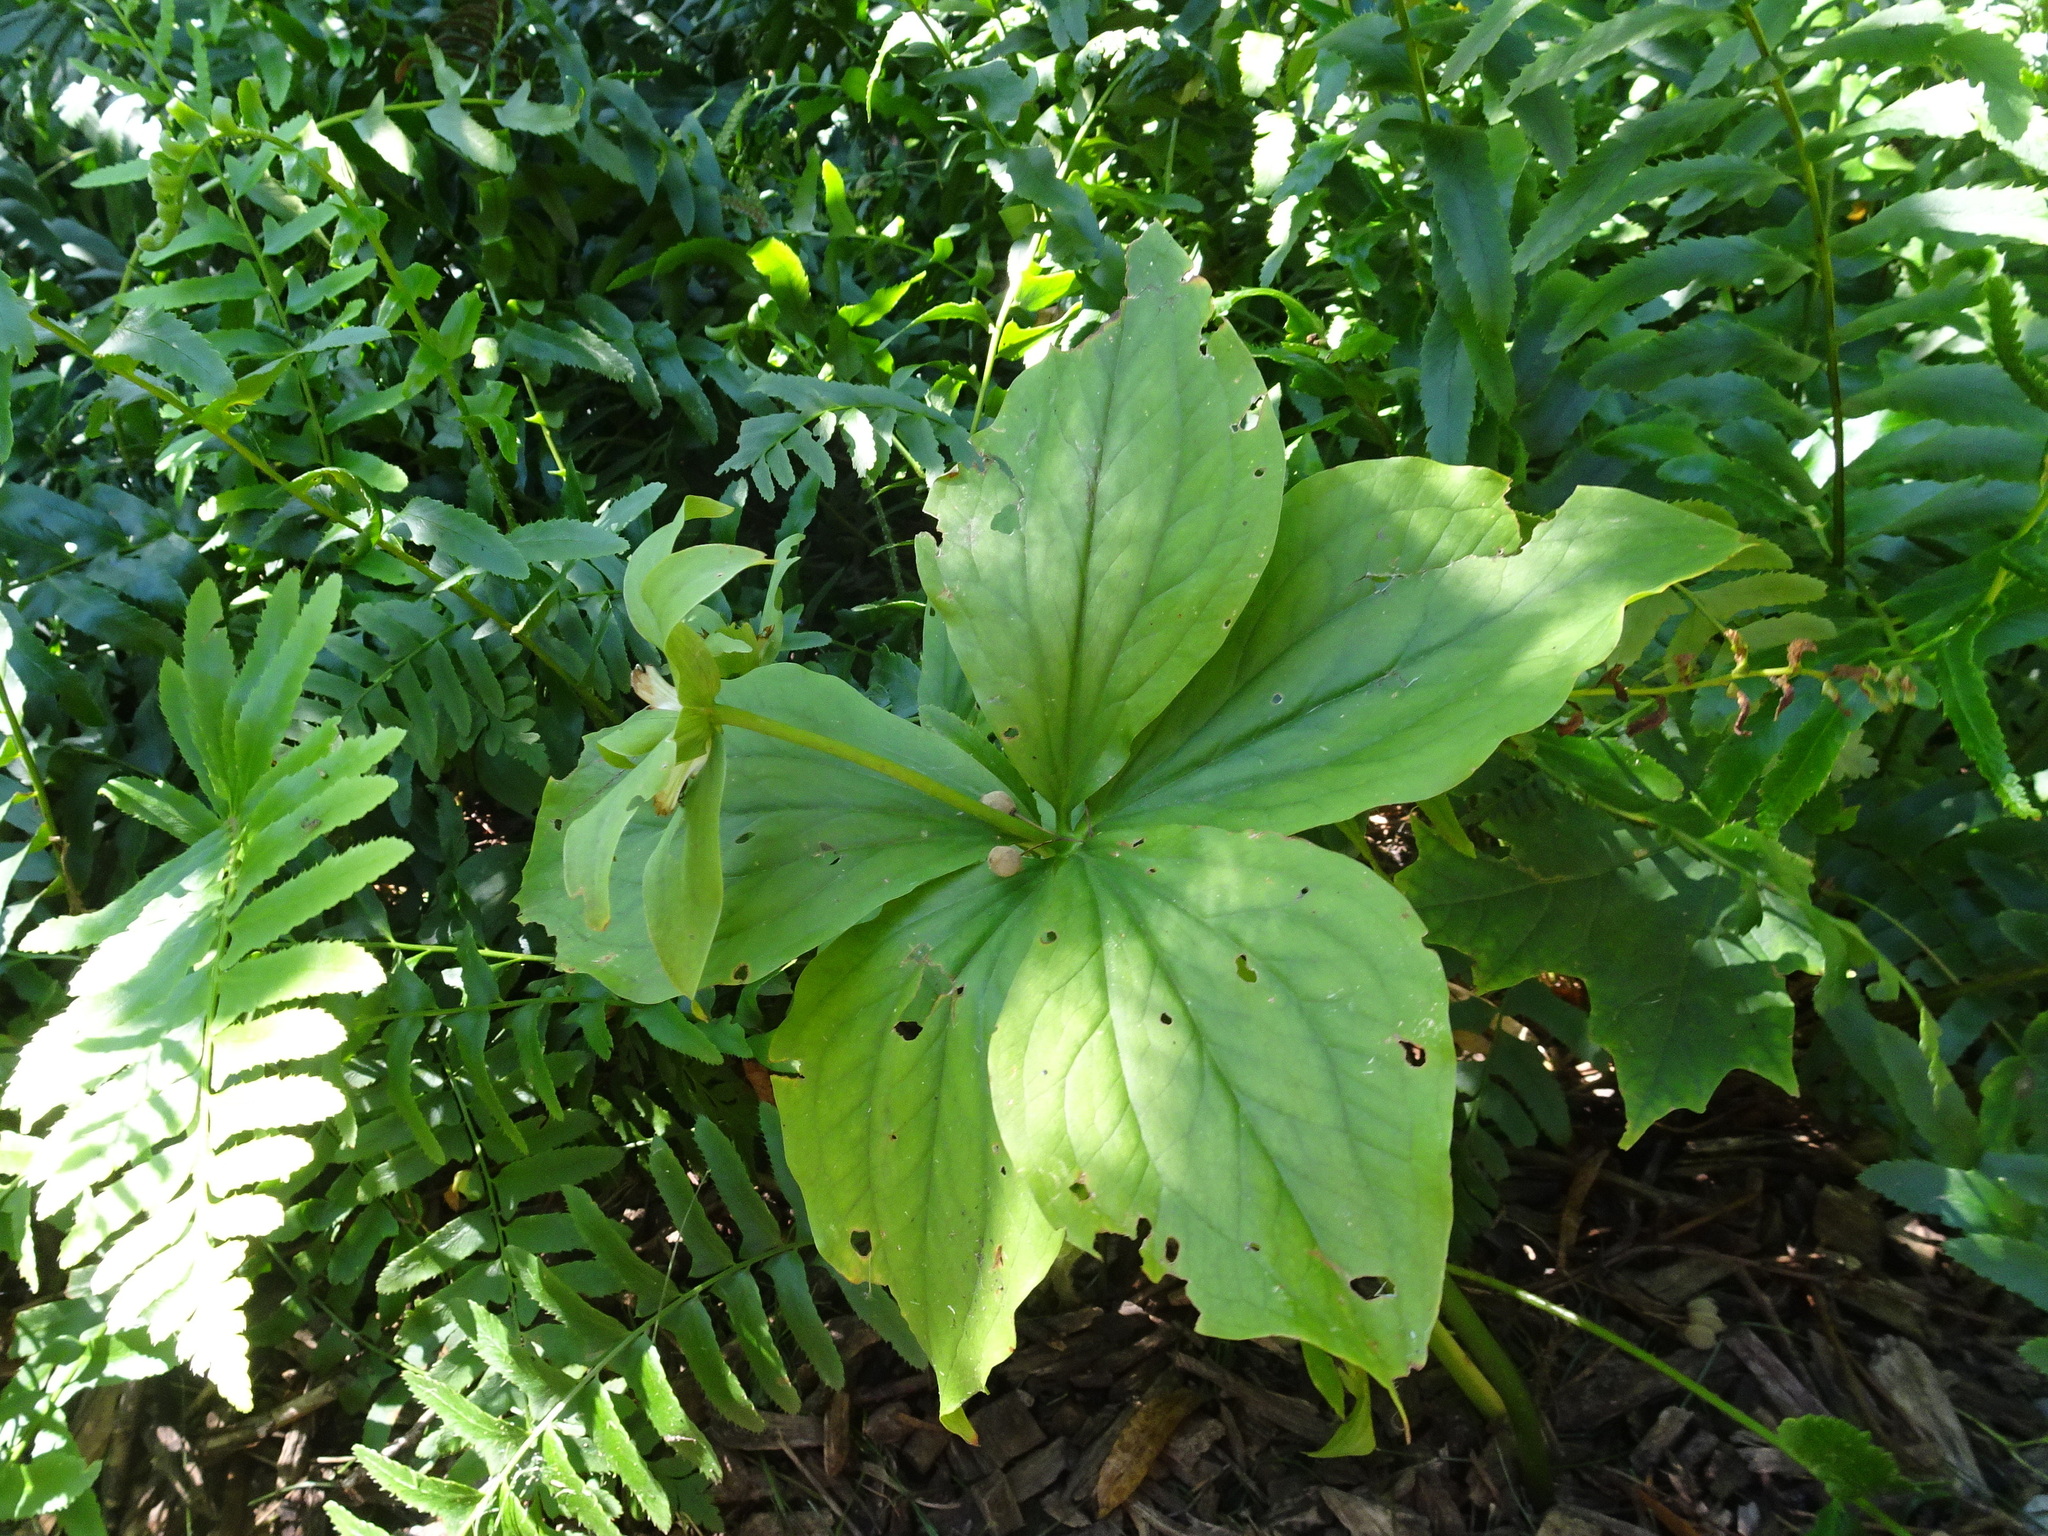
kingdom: Plantae
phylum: Tracheophyta
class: Liliopsida
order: Liliales
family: Melanthiaceae
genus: Trillium
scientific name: Trillium grandiflorum
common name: Great white trillium
